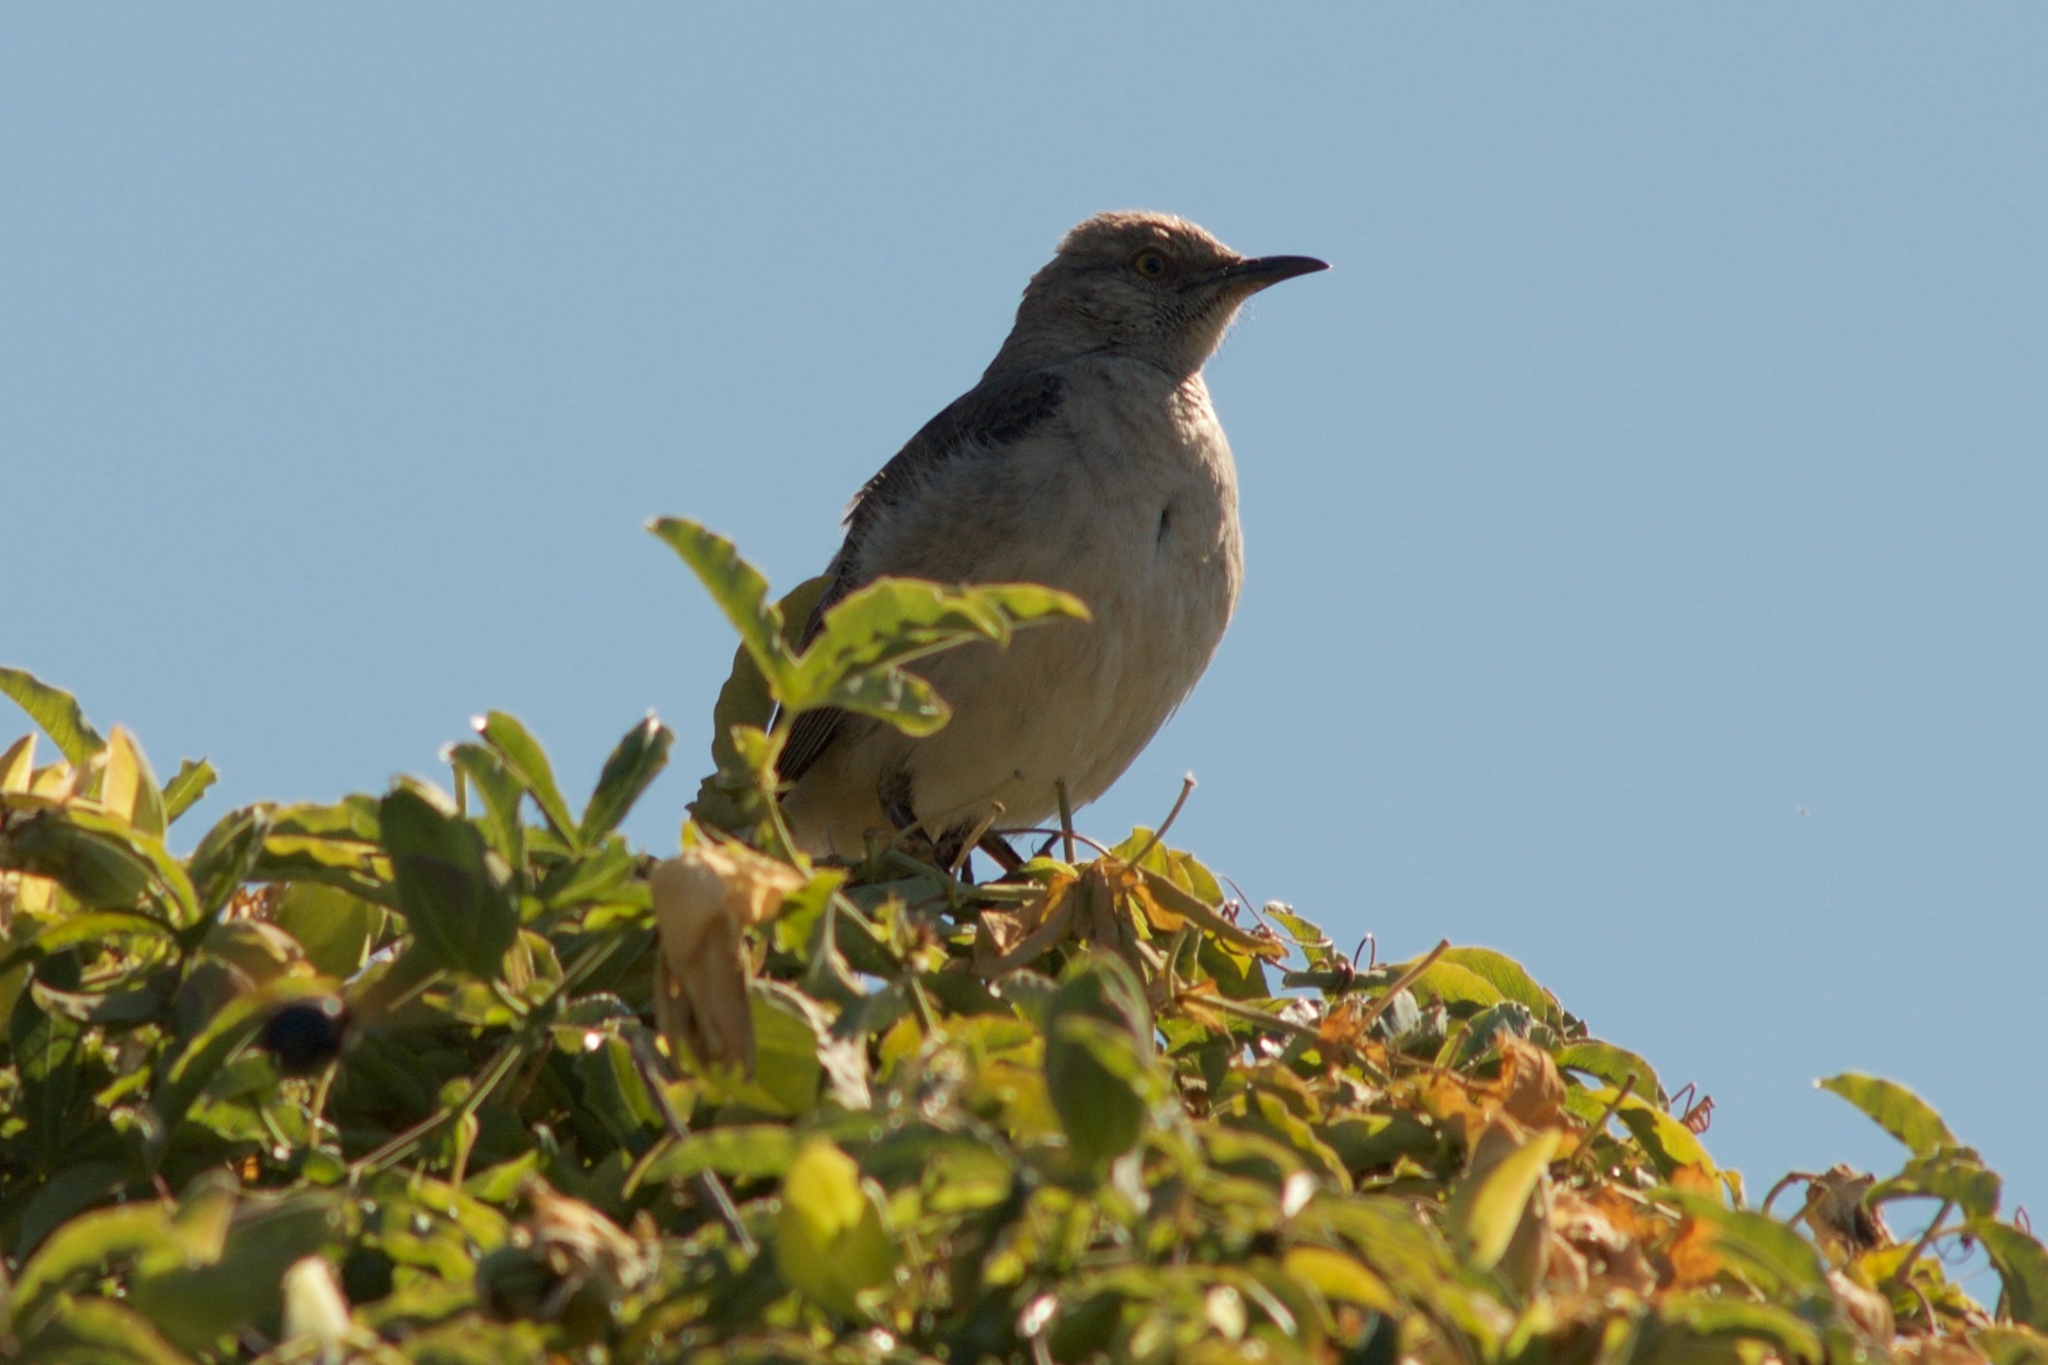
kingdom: Animalia
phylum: Chordata
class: Aves
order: Passeriformes
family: Mimidae
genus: Mimus
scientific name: Mimus polyglottos
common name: Northern mockingbird
